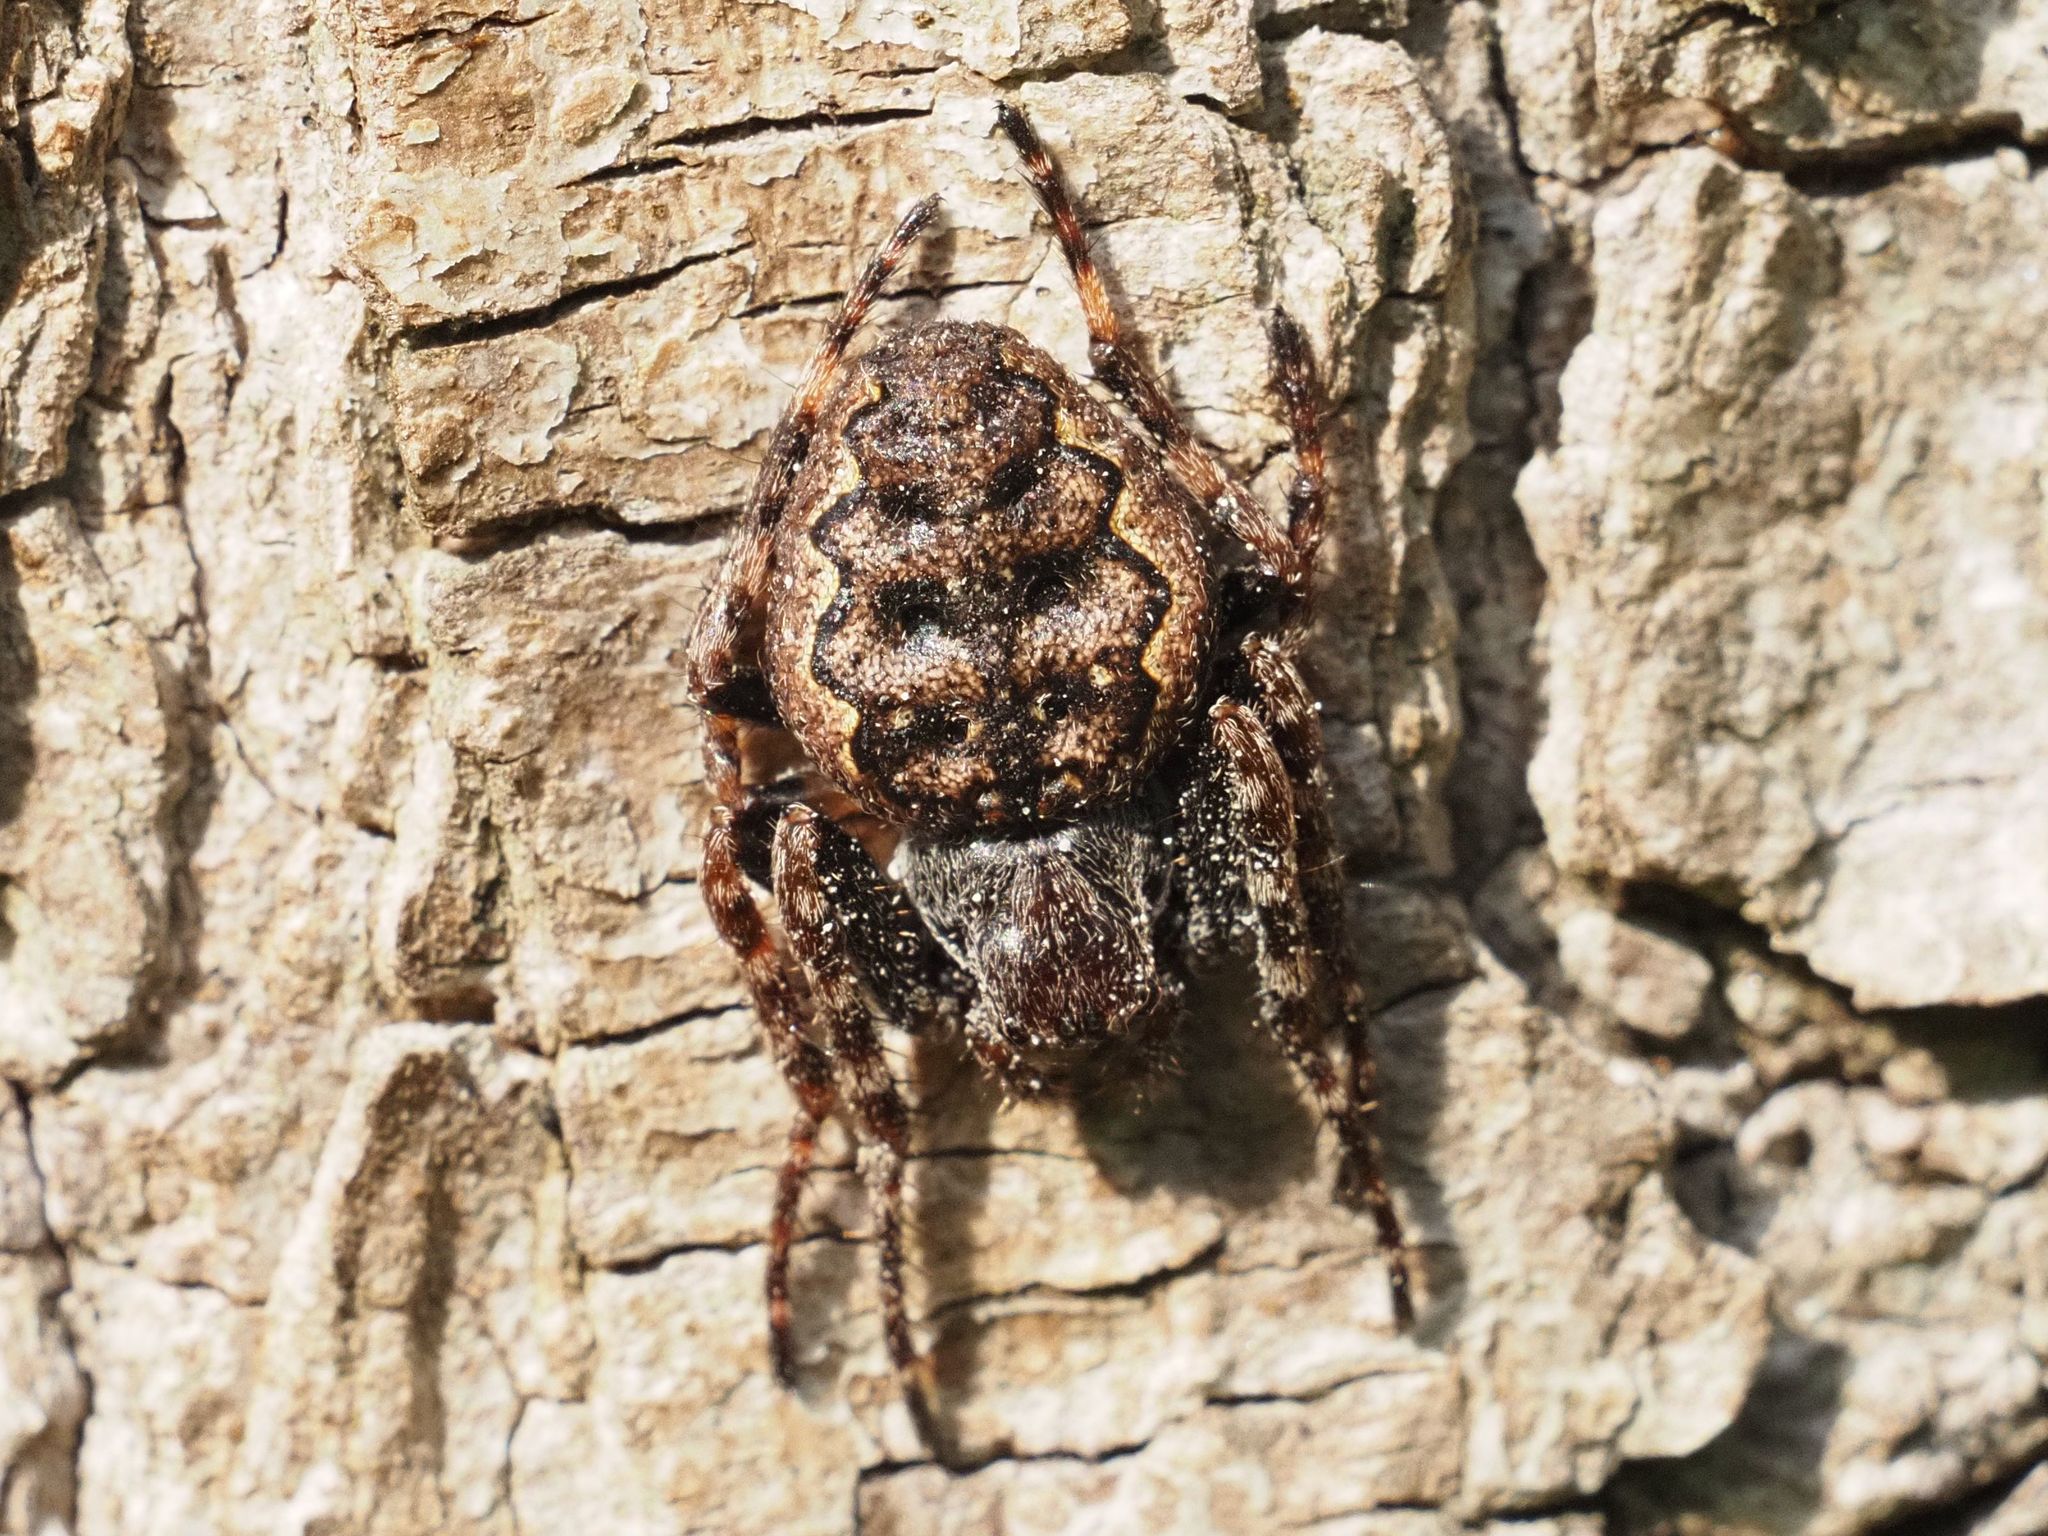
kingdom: Animalia
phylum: Arthropoda
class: Arachnida
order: Araneae
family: Araneidae
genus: Nuctenea
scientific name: Nuctenea umbratica
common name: Toad spider
